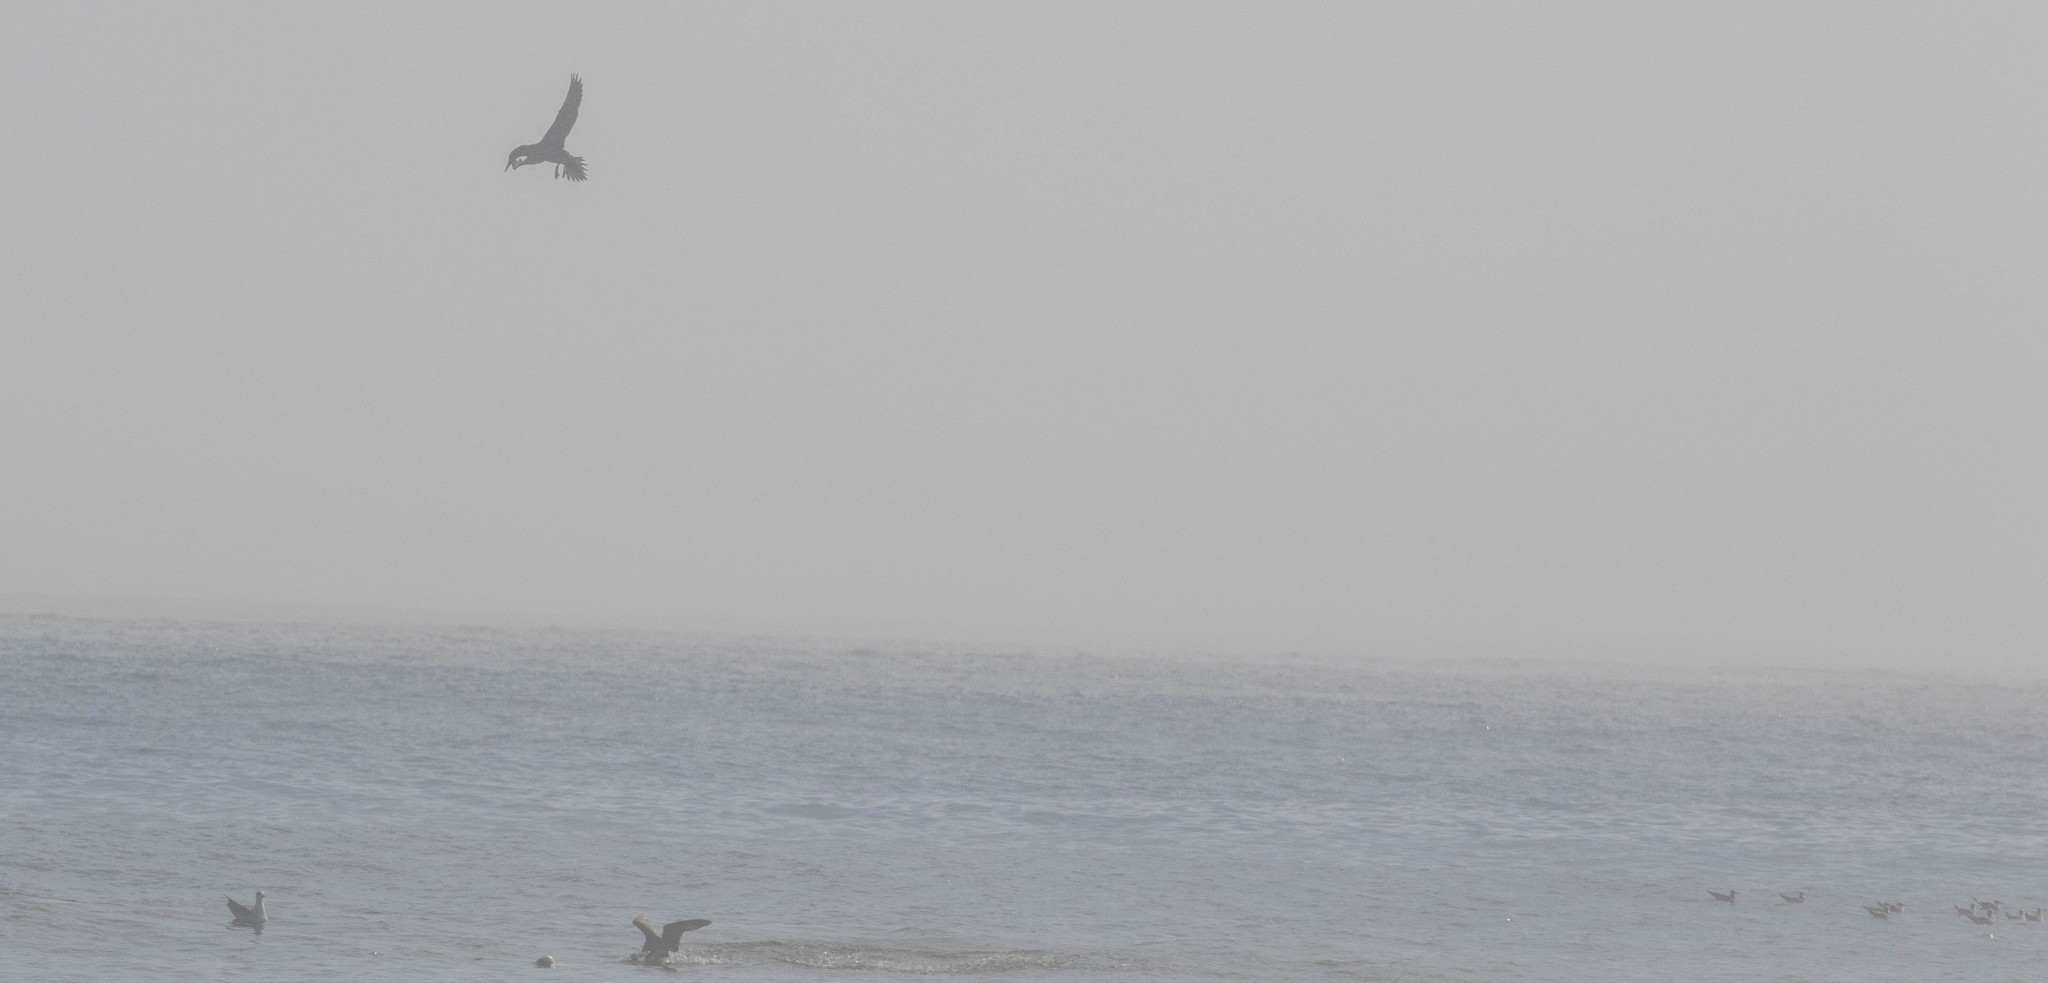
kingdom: Animalia
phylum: Chordata
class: Aves
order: Suliformes
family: Sulidae
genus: Morus
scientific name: Morus bassanus
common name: Northern gannet
